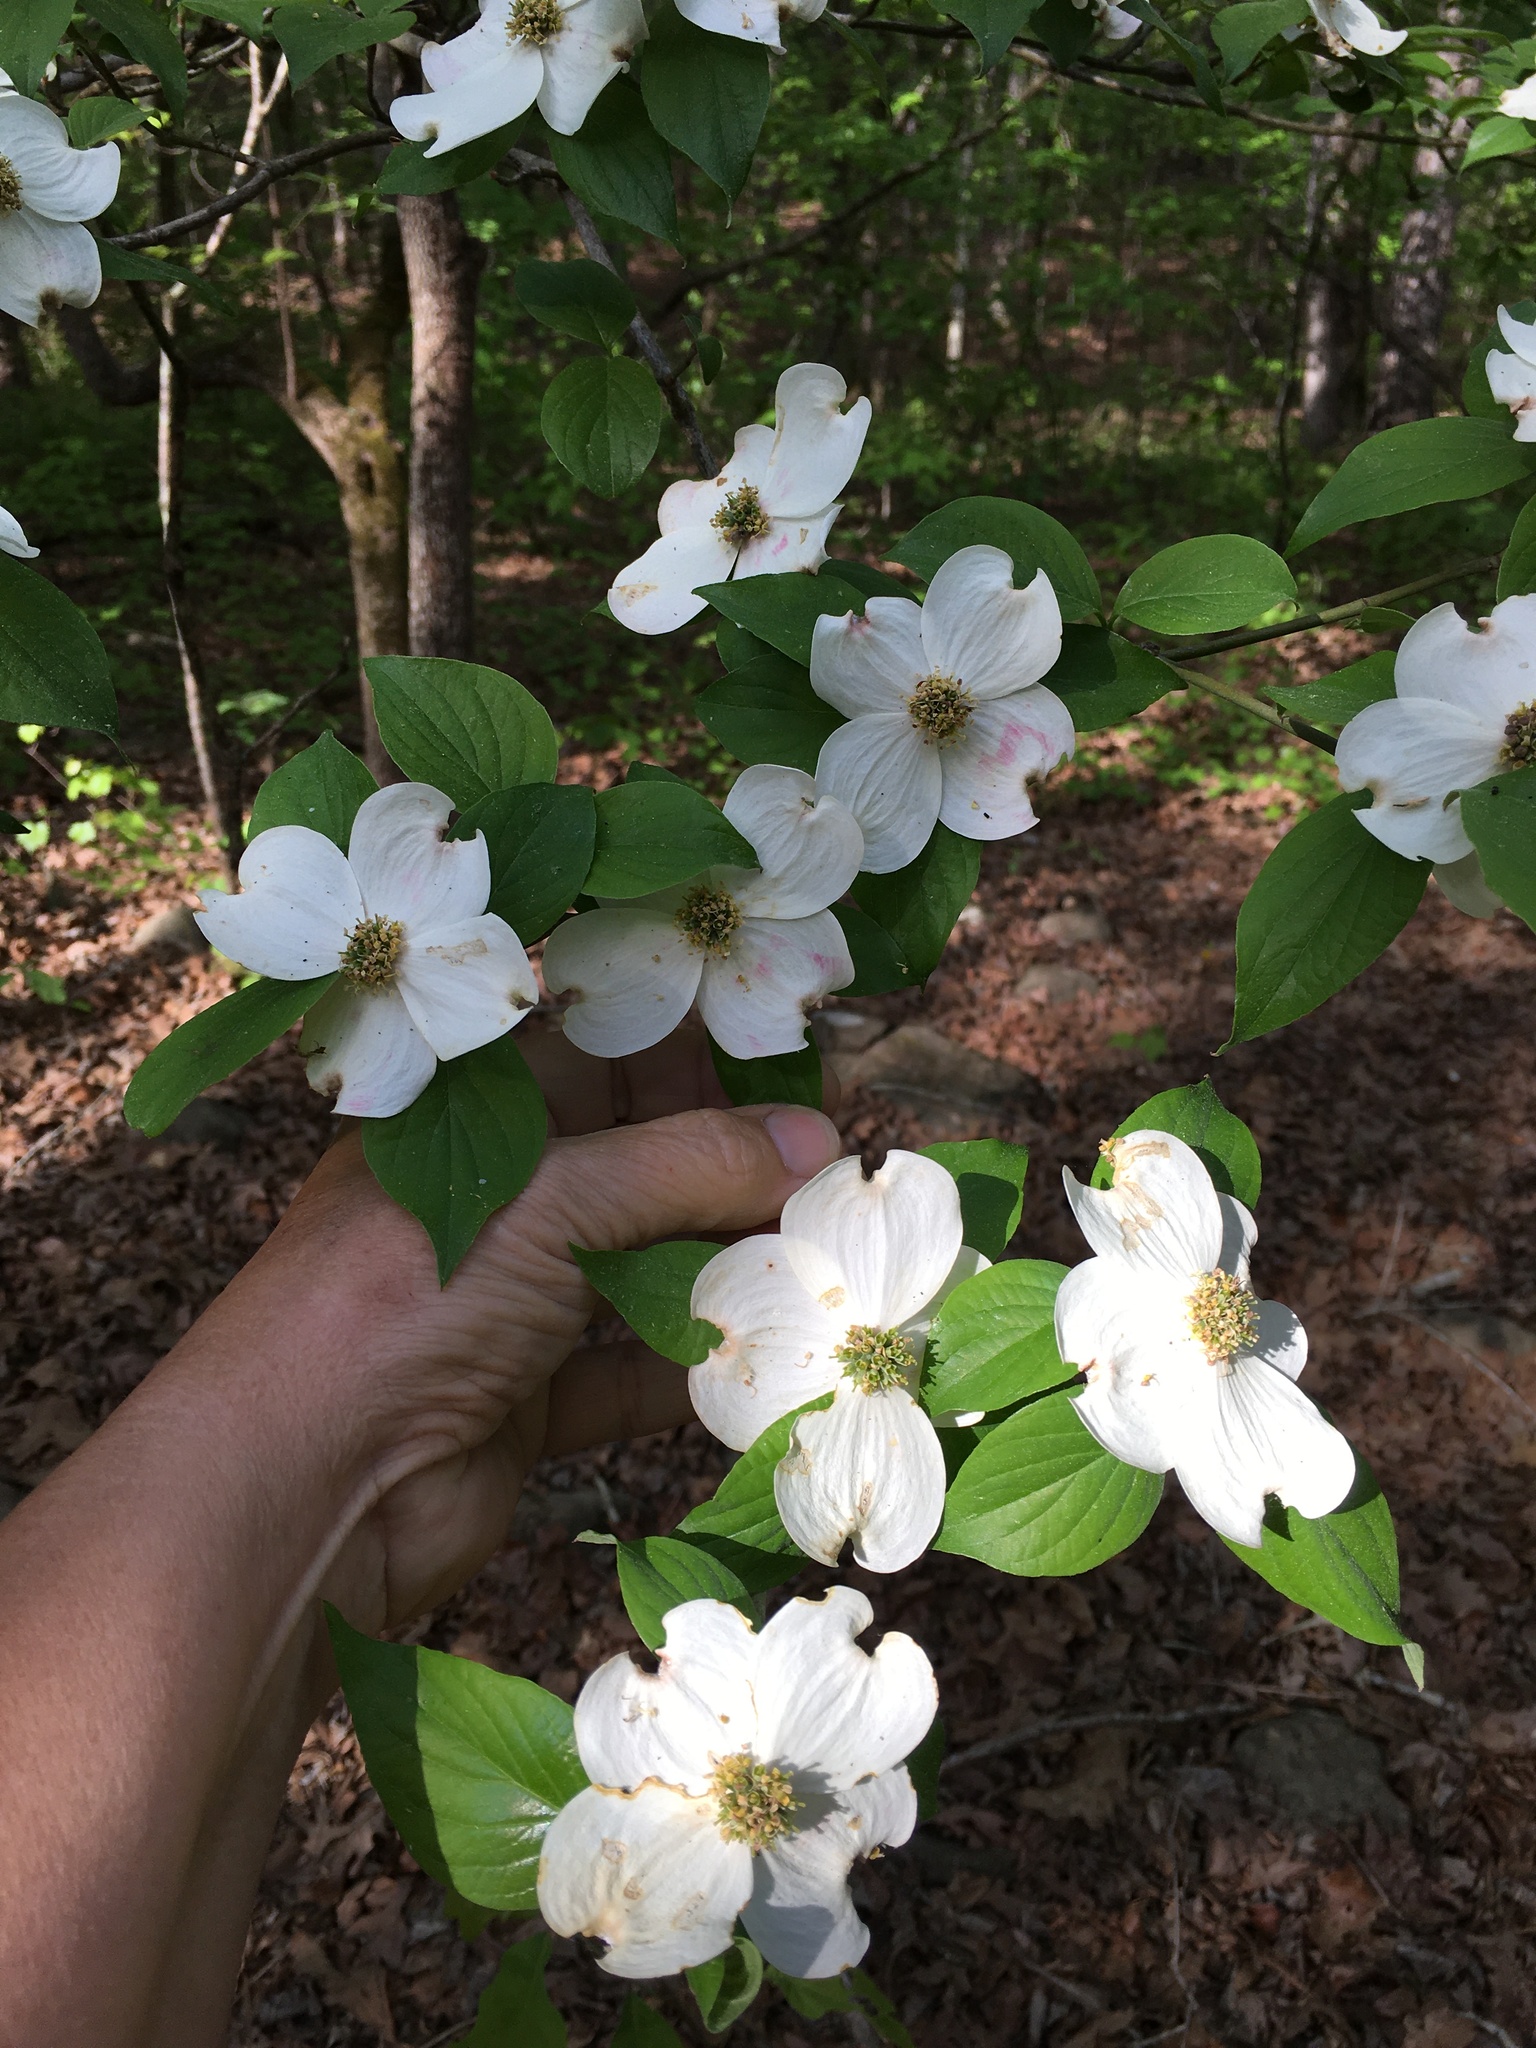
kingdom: Plantae
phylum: Tracheophyta
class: Magnoliopsida
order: Cornales
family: Cornaceae
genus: Cornus
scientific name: Cornus florida
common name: Flowering dogwood
